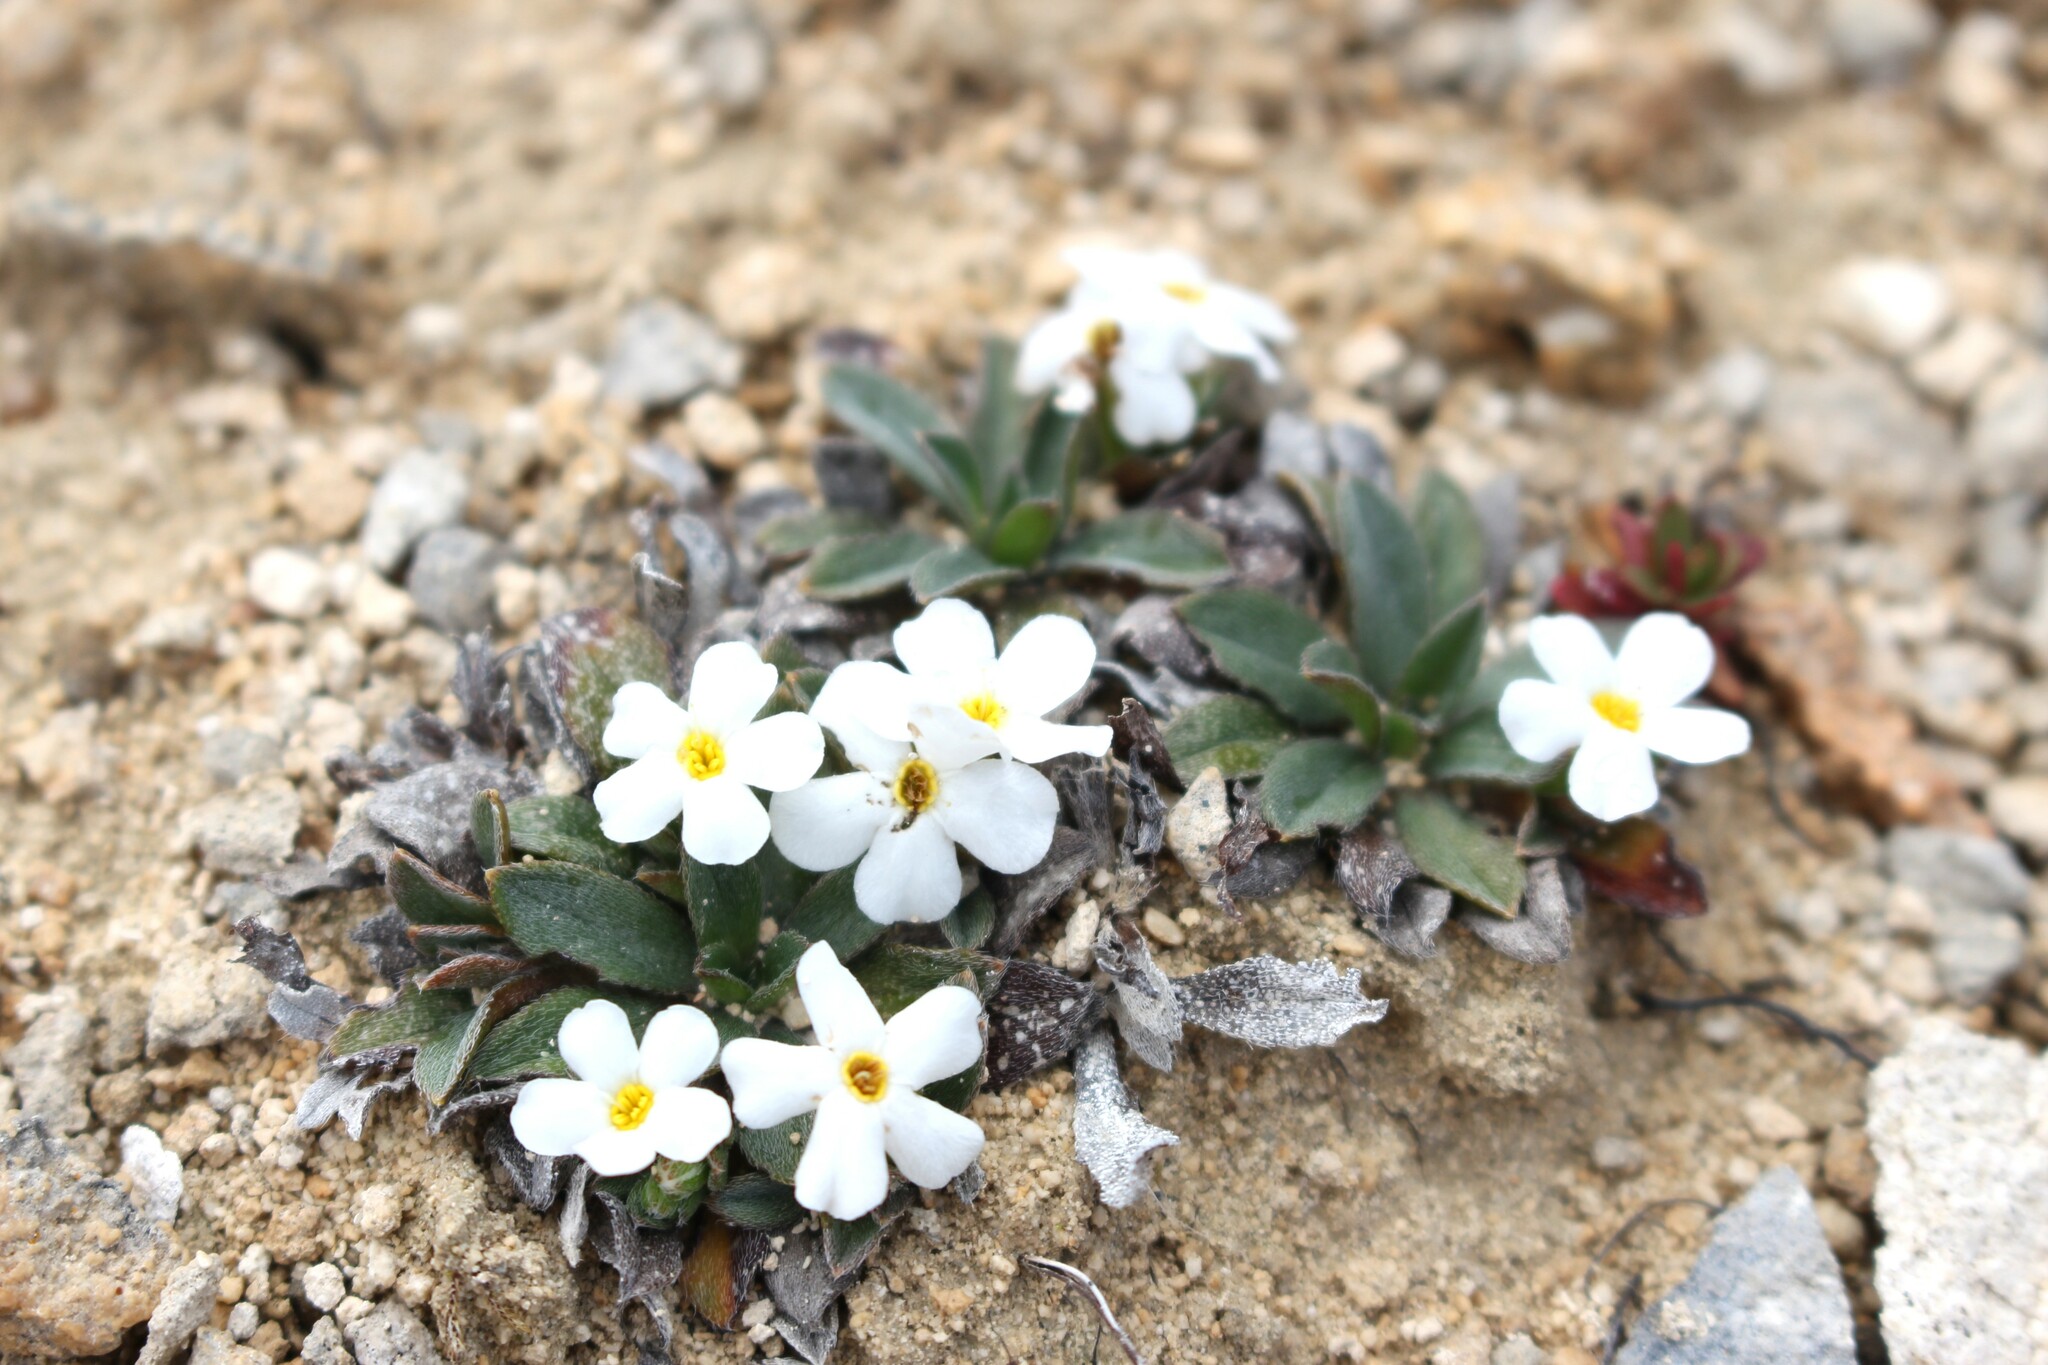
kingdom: Plantae
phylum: Tracheophyta
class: Magnoliopsida
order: Boraginales
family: Boraginaceae
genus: Myosotis
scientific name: Myosotis colensoi
